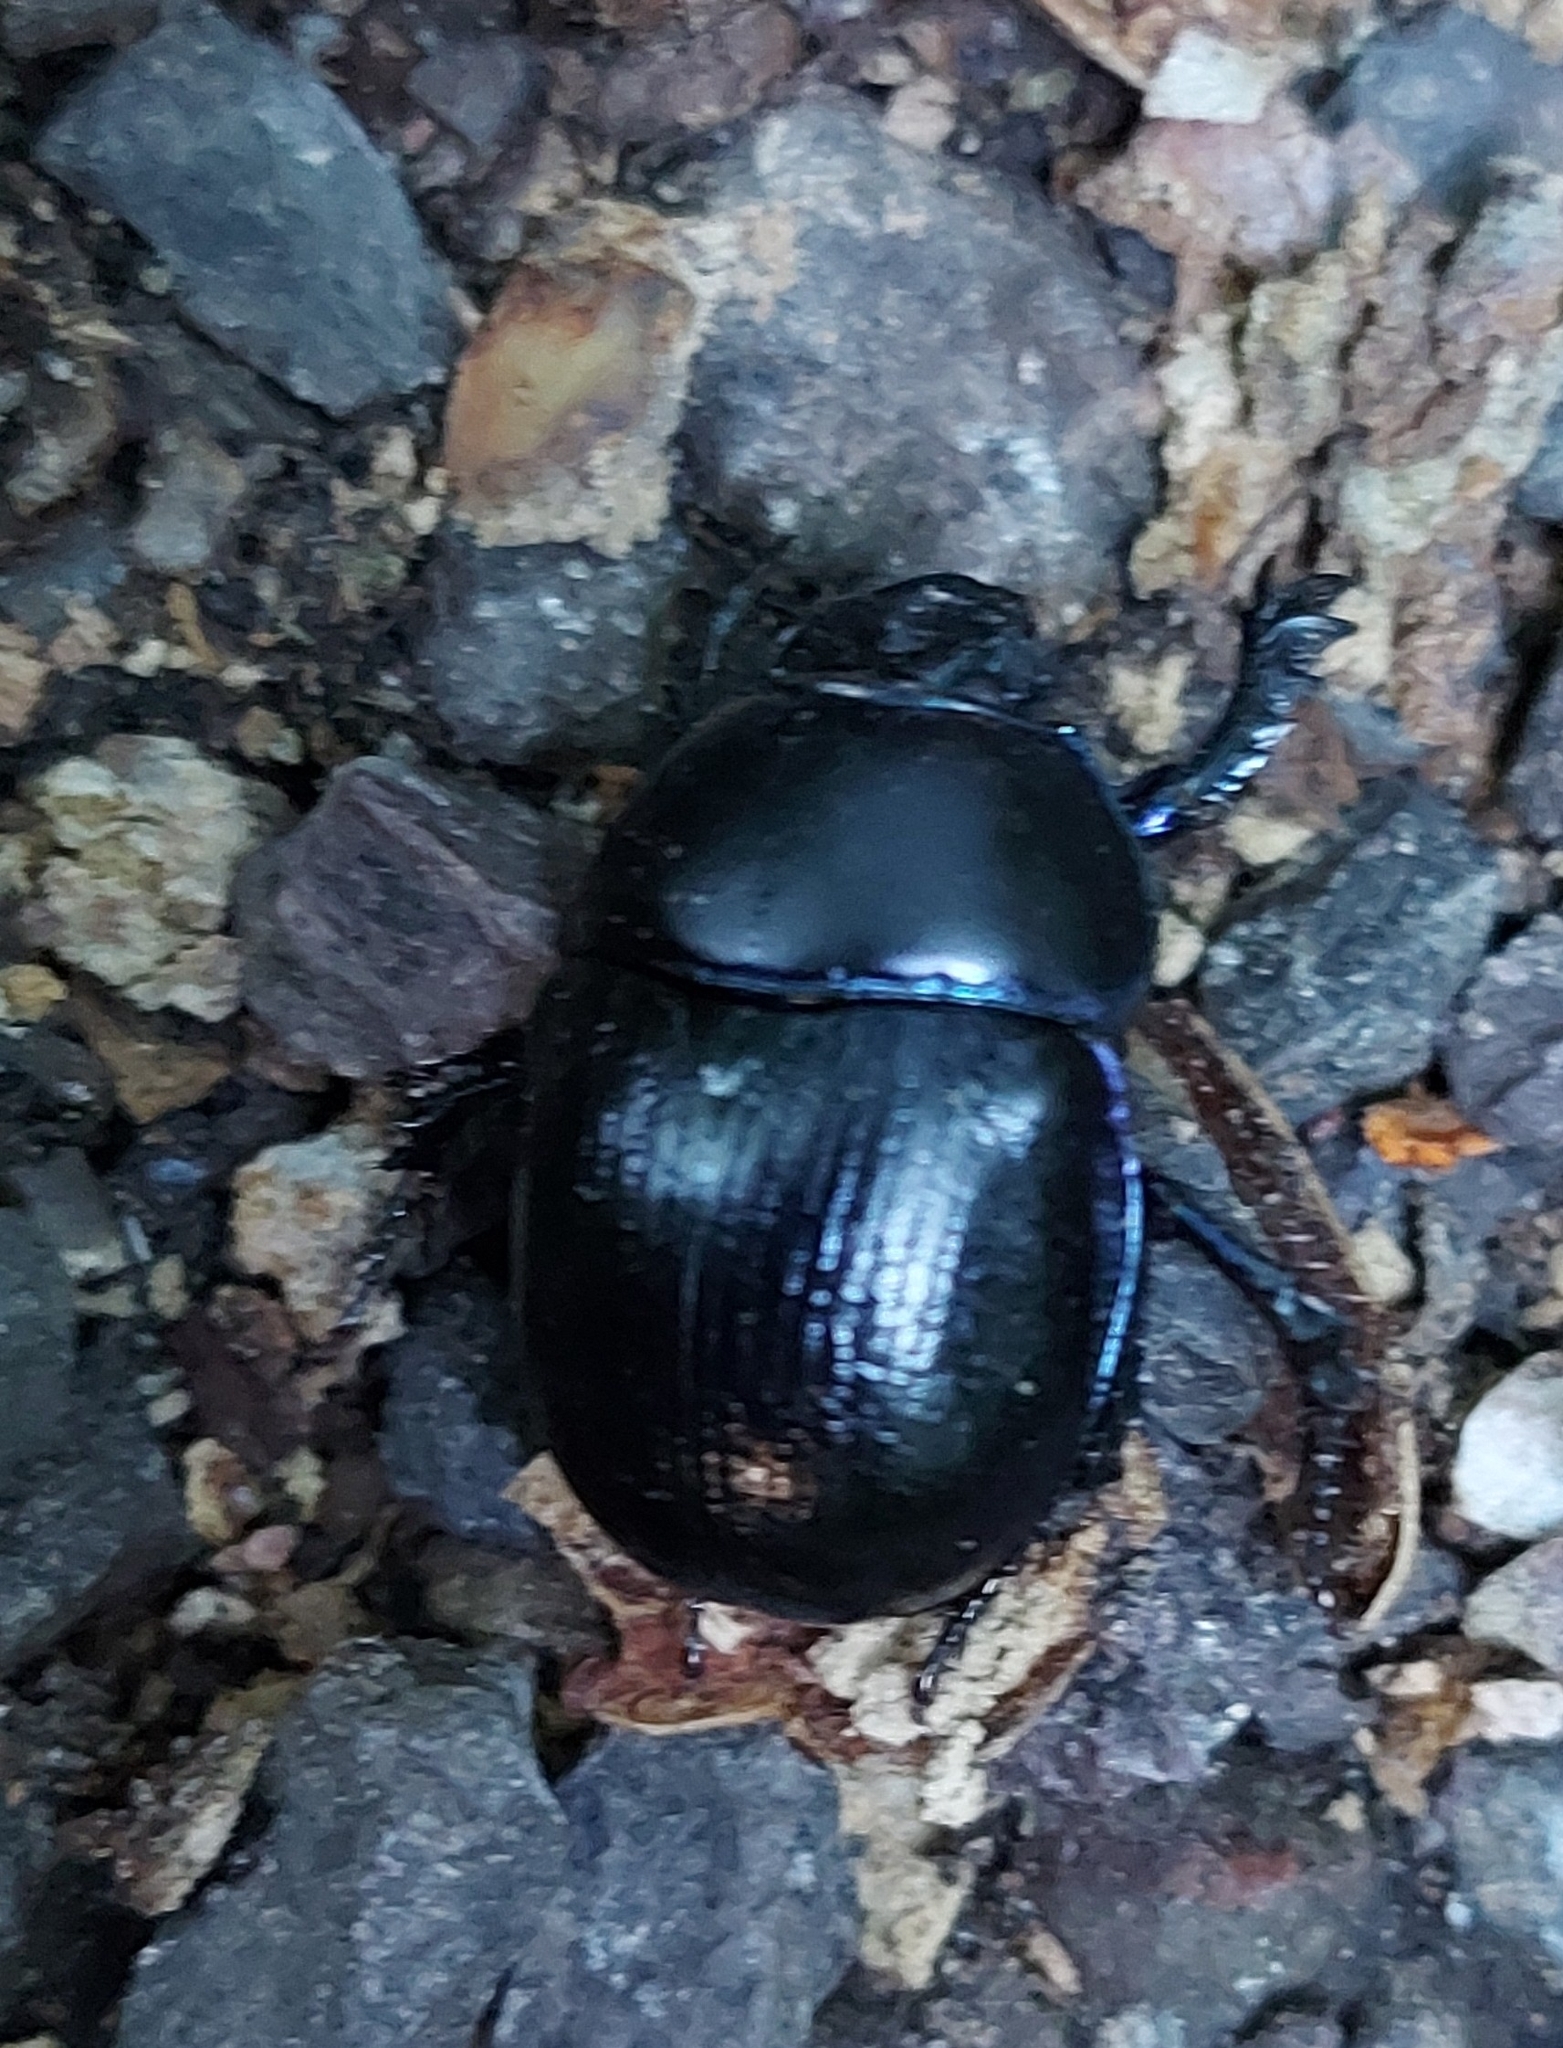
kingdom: Animalia
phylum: Arthropoda
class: Insecta
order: Coleoptera
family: Geotrupidae
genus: Anoplotrupes
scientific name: Anoplotrupes stercorosus
